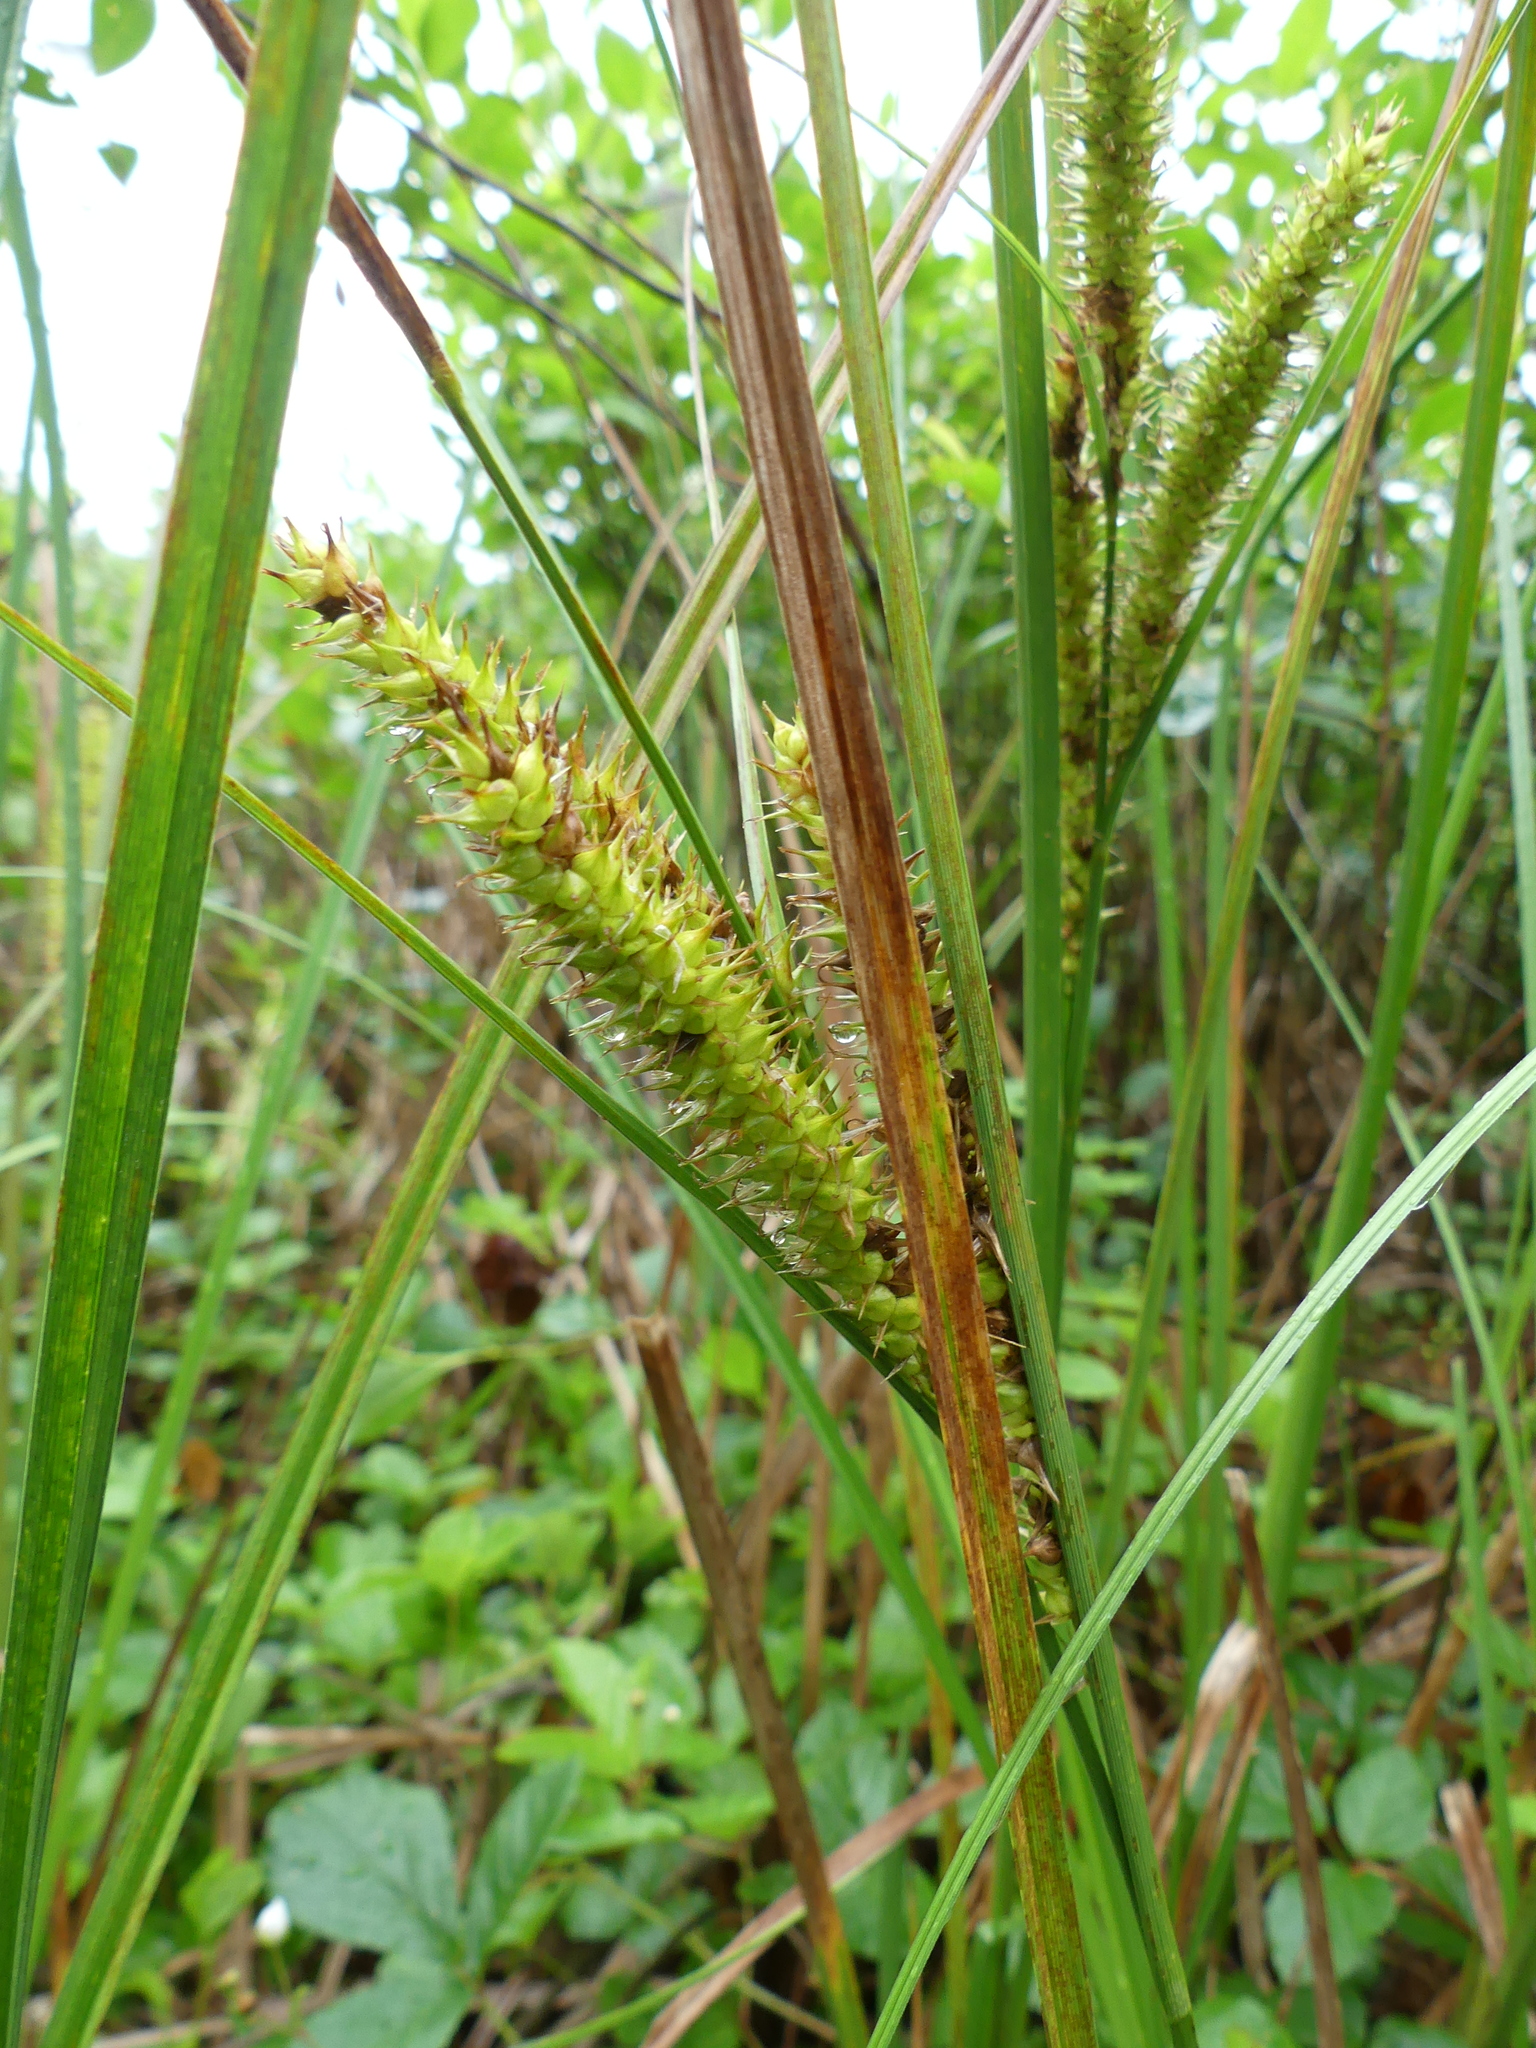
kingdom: Plantae
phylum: Tracheophyta
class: Liliopsida
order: Poales
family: Cyperaceae
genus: Carex
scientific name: Carex utriculata
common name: Beaked sedge
